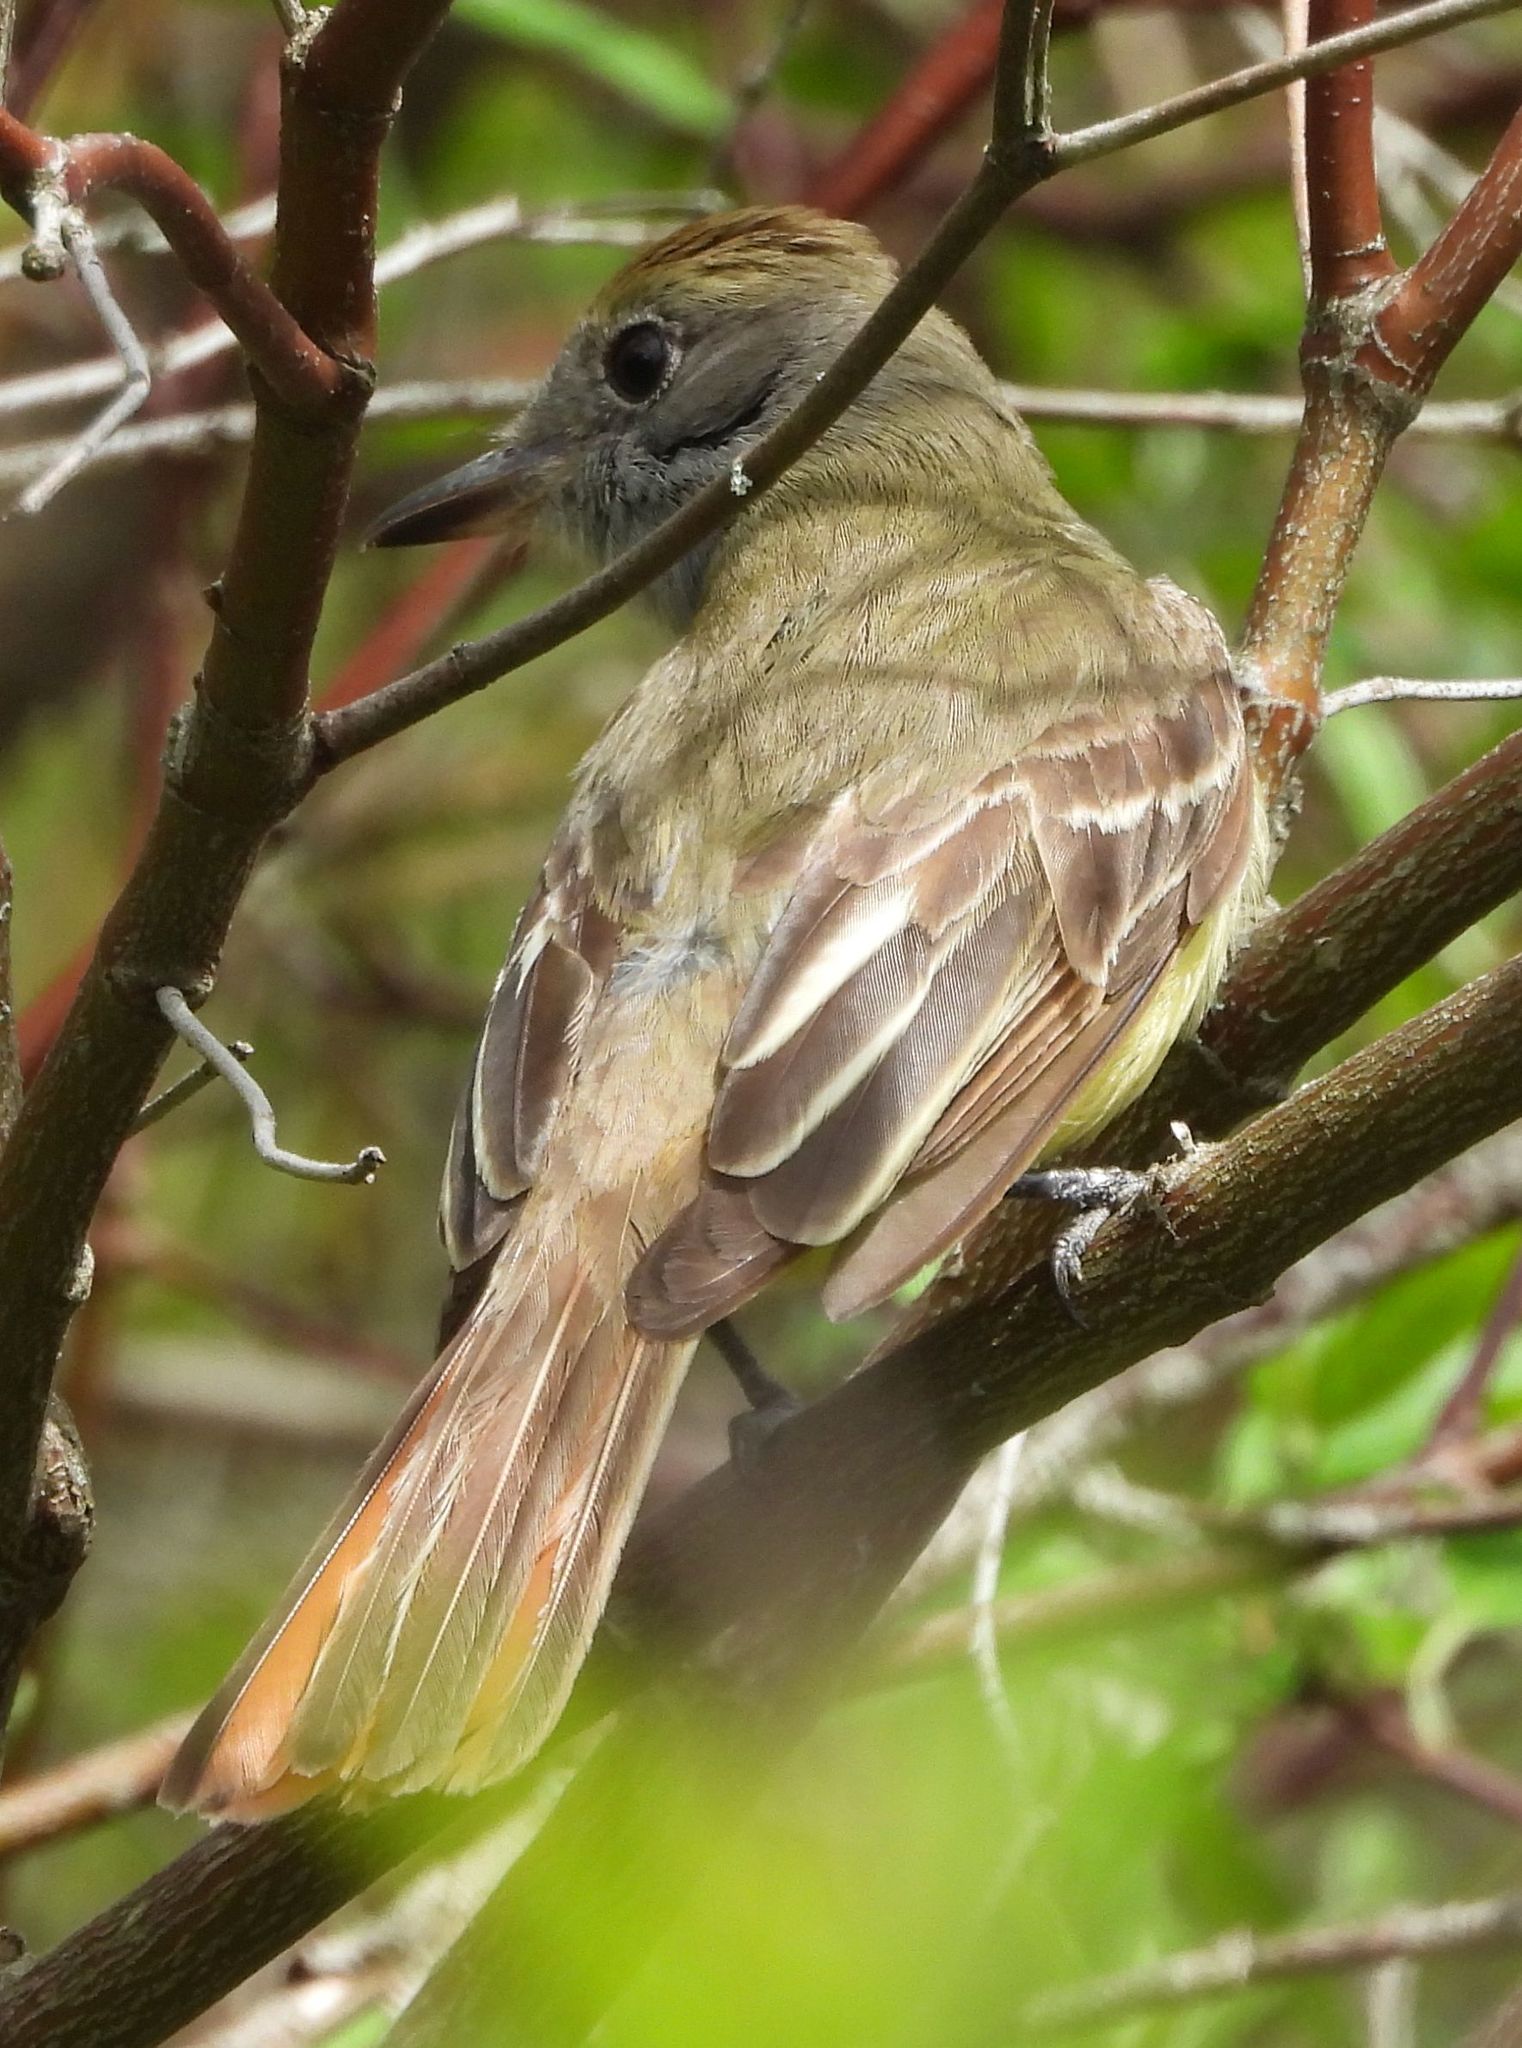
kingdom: Animalia
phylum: Chordata
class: Aves
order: Passeriformes
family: Tyrannidae
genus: Myiarchus
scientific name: Myiarchus crinitus
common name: Great crested flycatcher
